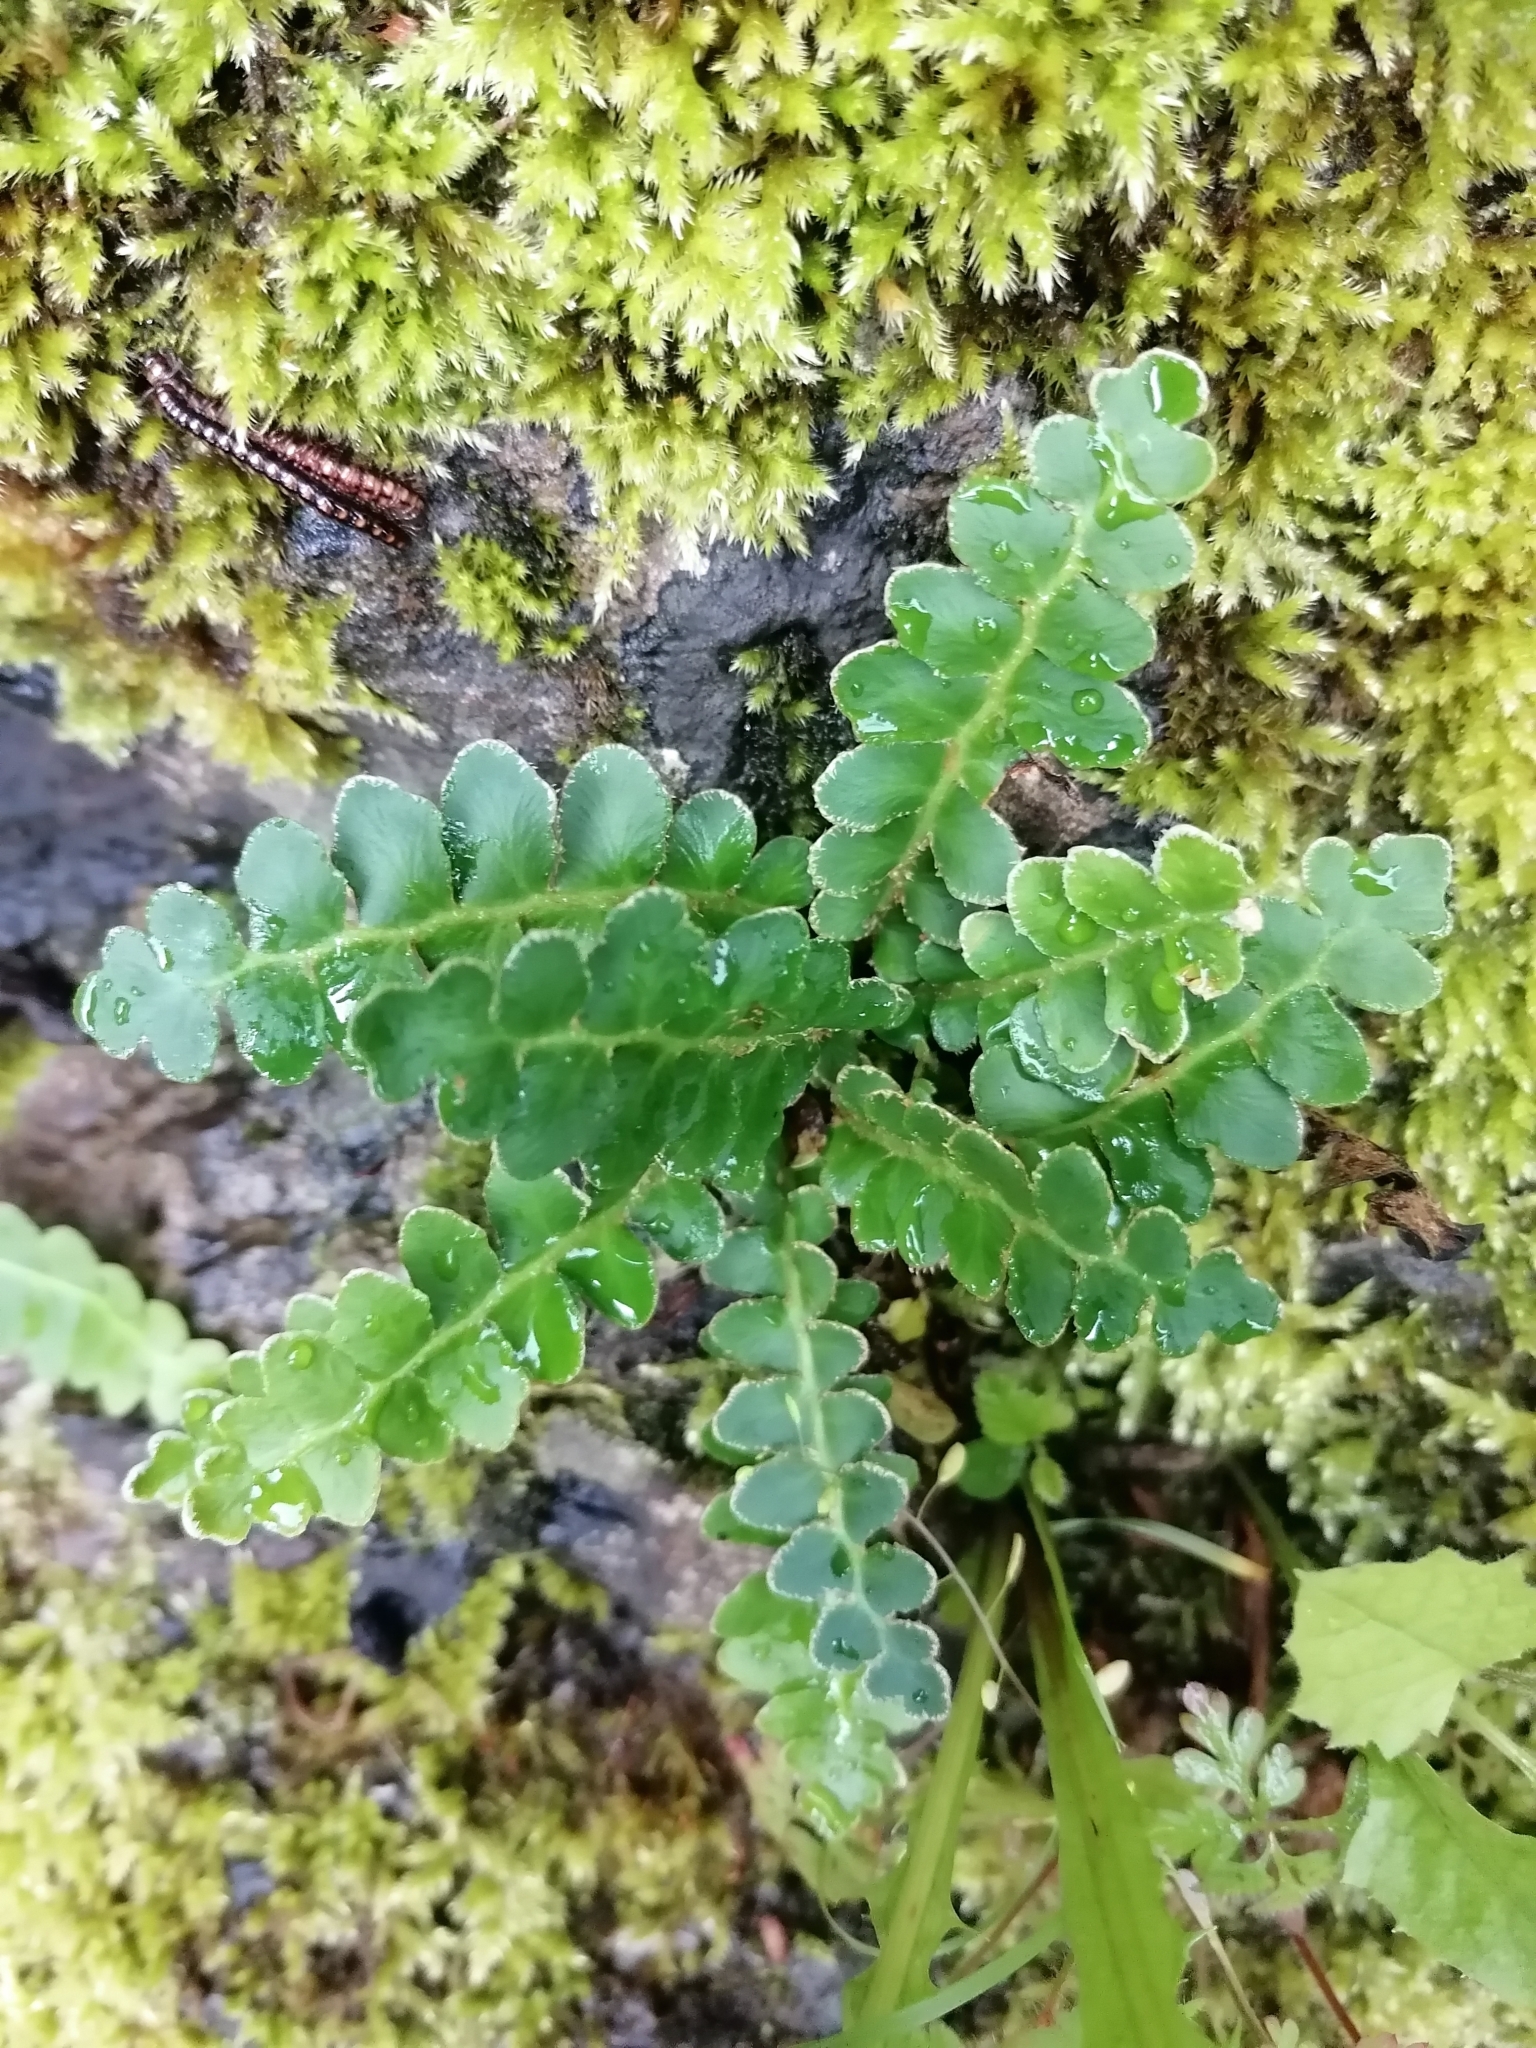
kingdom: Plantae
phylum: Tracheophyta
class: Polypodiopsida
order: Polypodiales
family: Aspleniaceae
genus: Asplenium
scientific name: Asplenium ceterach
